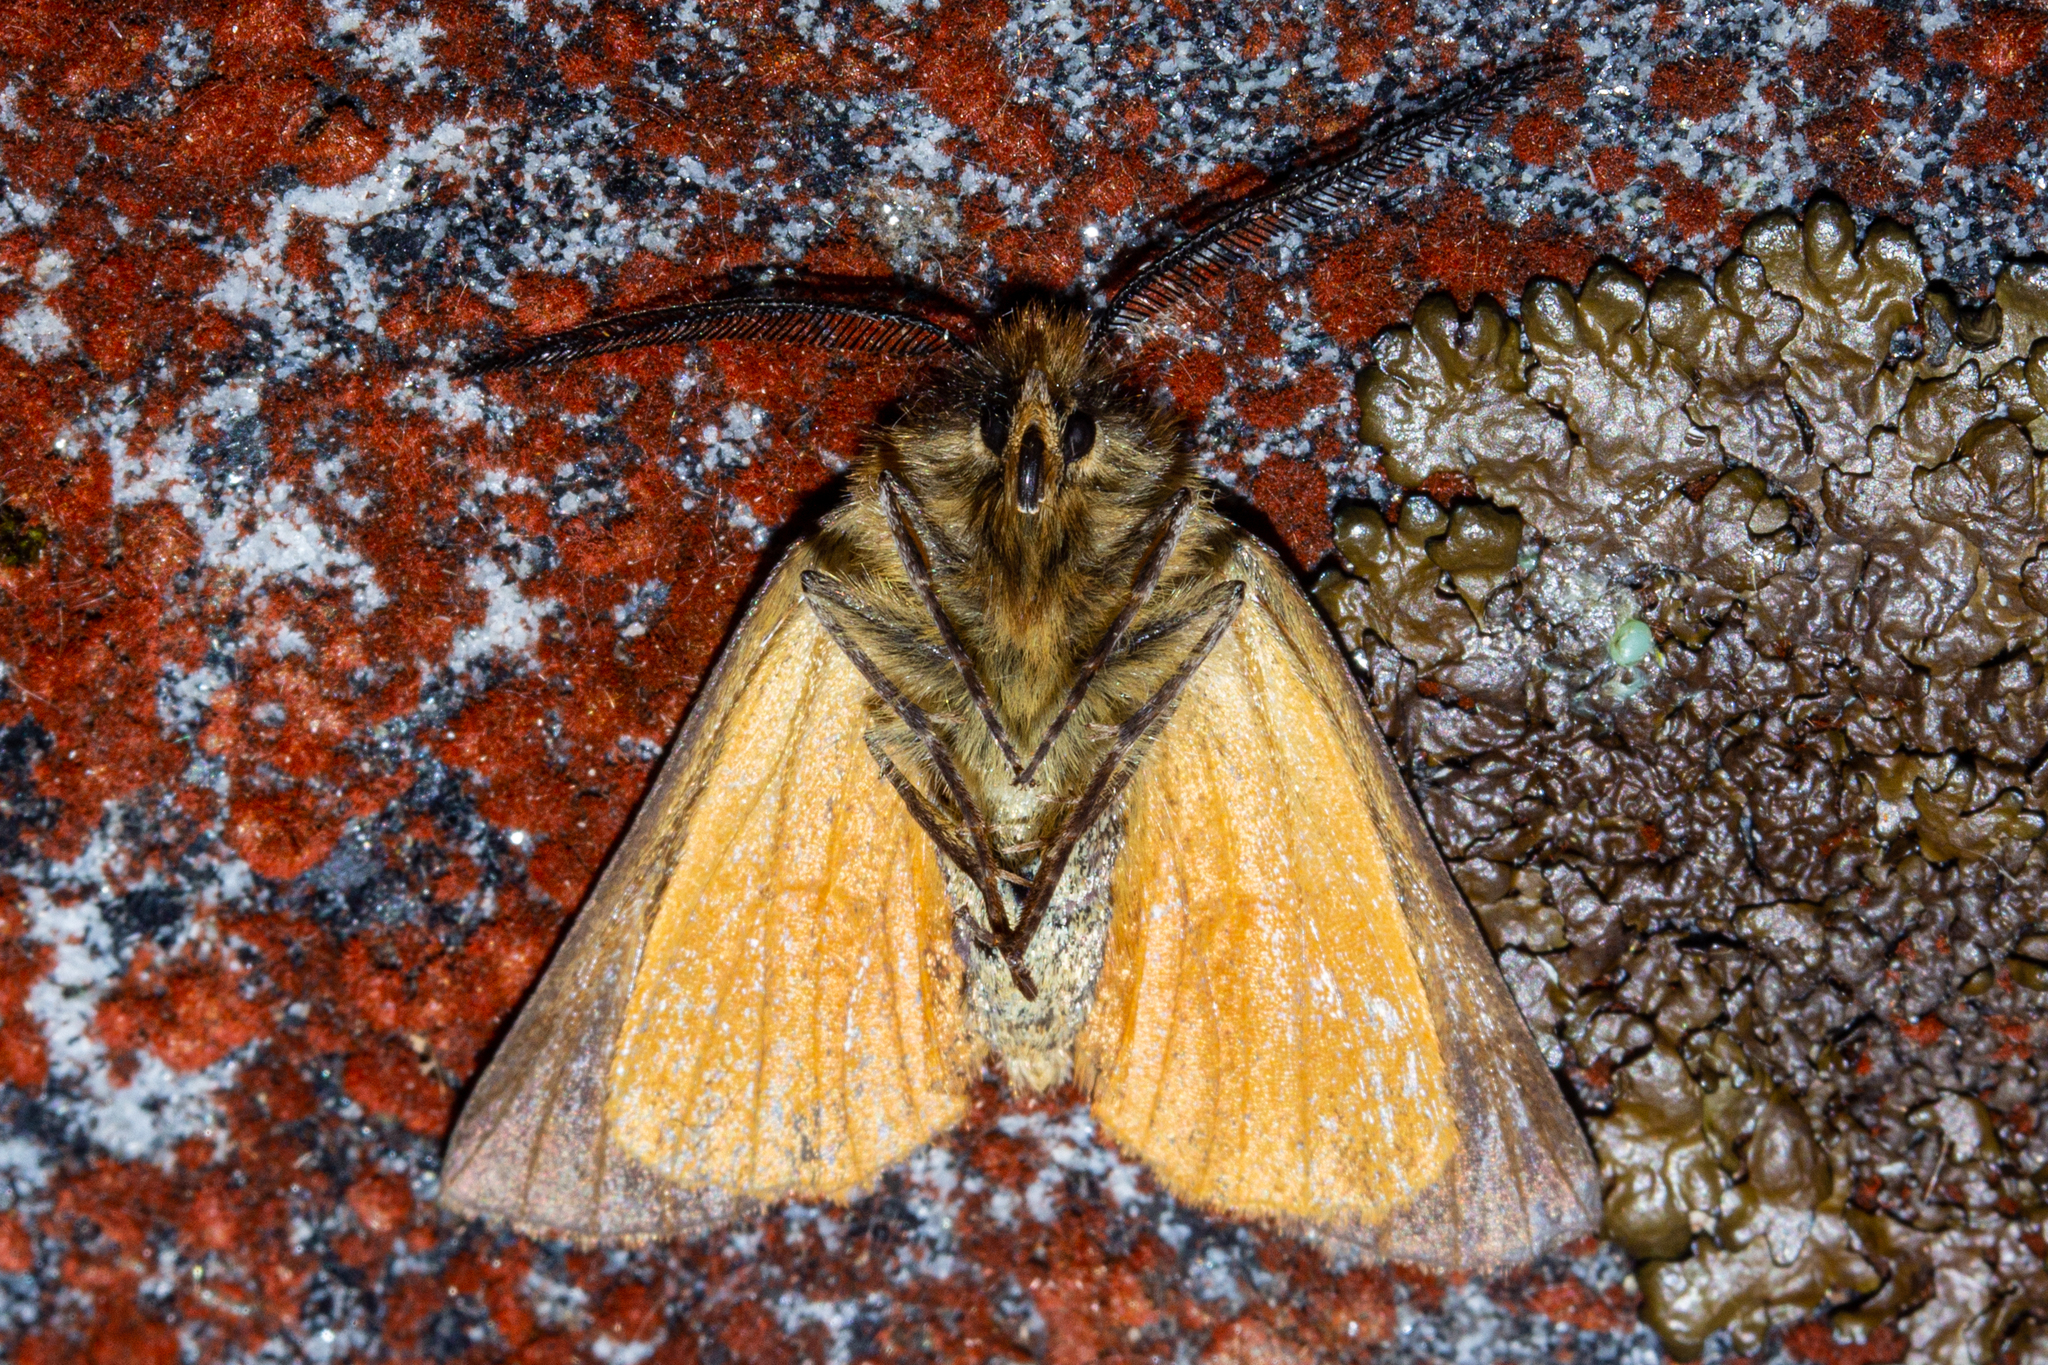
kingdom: Animalia
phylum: Arthropoda
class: Insecta
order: Lepidoptera
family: Geometridae
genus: Declana
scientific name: Declana
